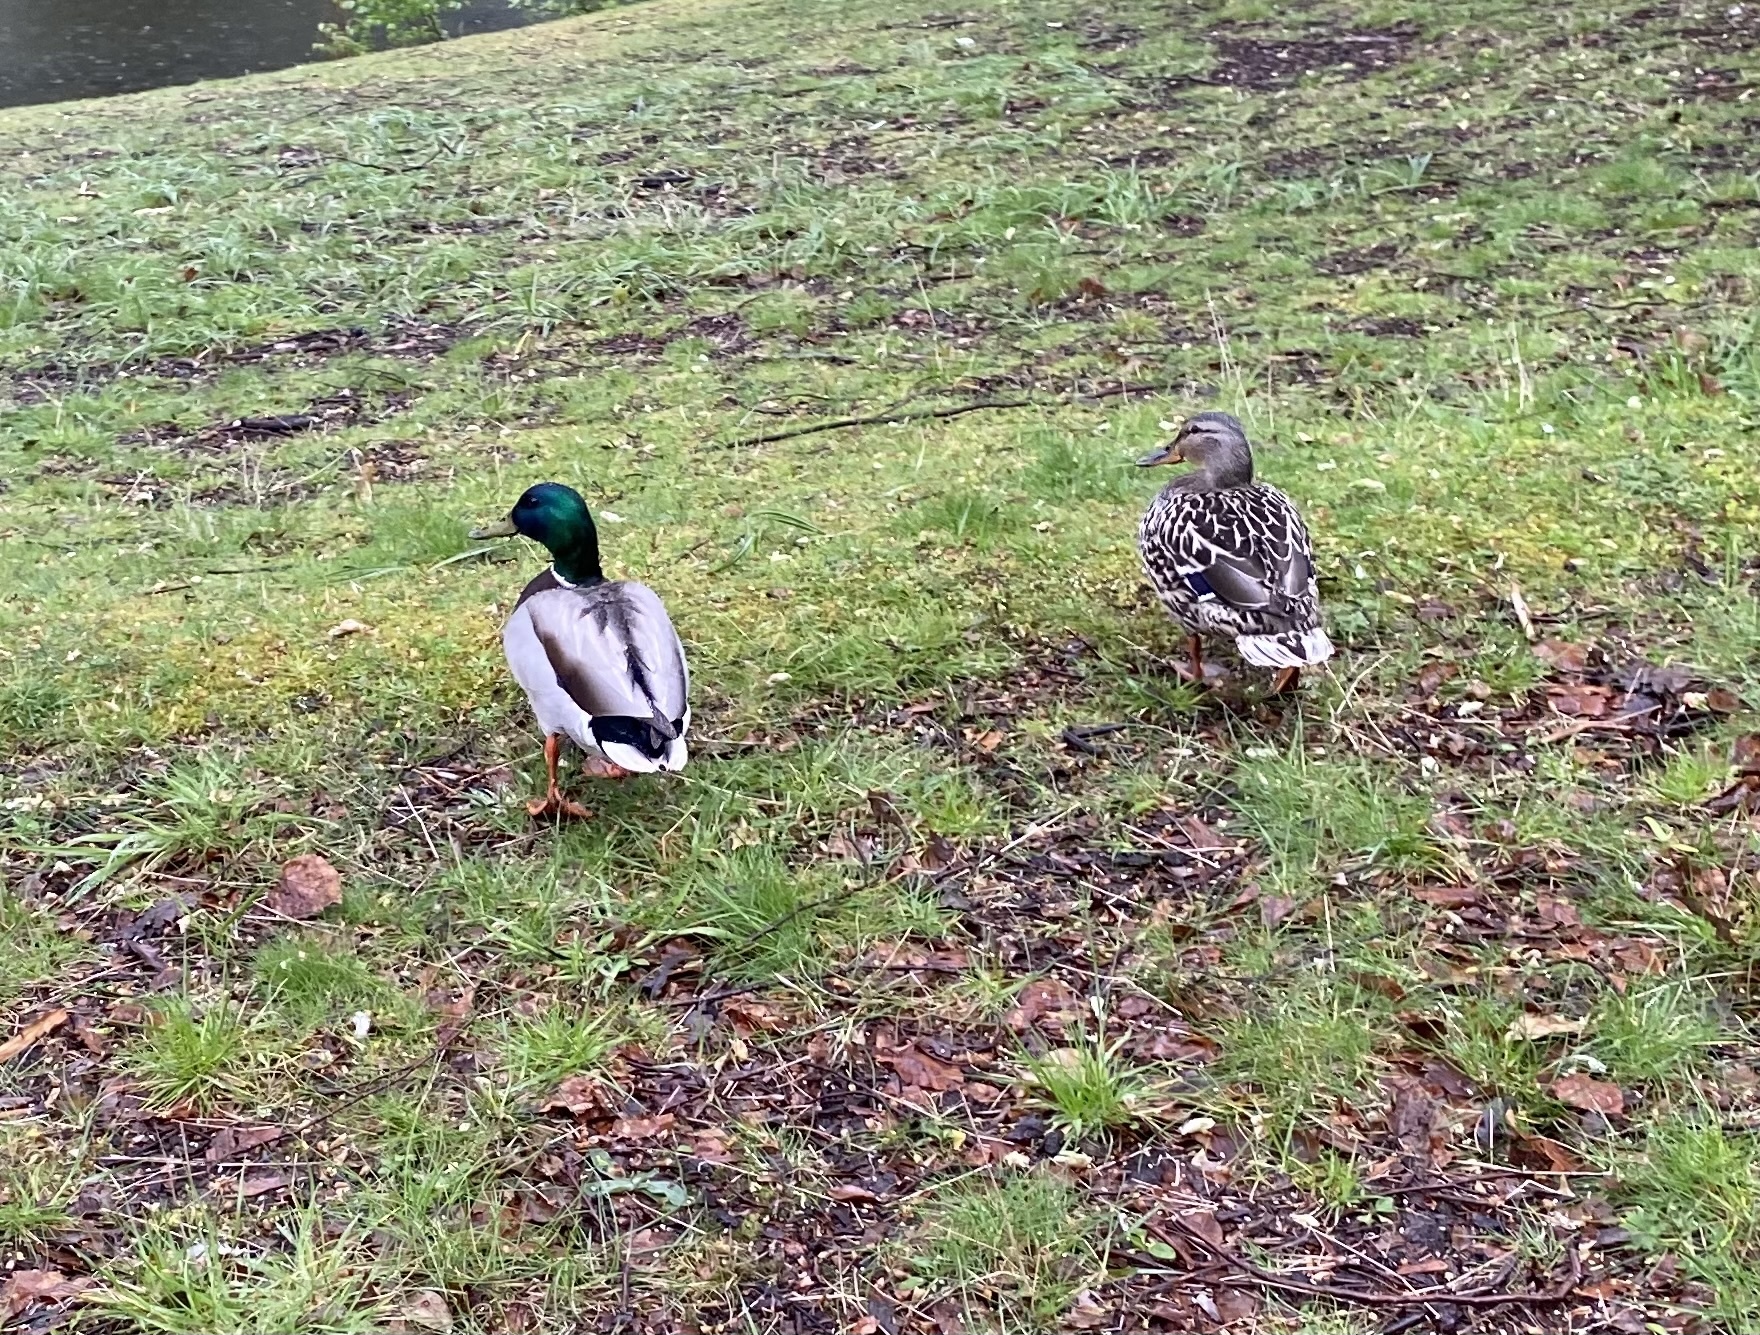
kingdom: Animalia
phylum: Chordata
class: Aves
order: Anseriformes
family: Anatidae
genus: Anas
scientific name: Anas platyrhynchos
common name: Mallard
